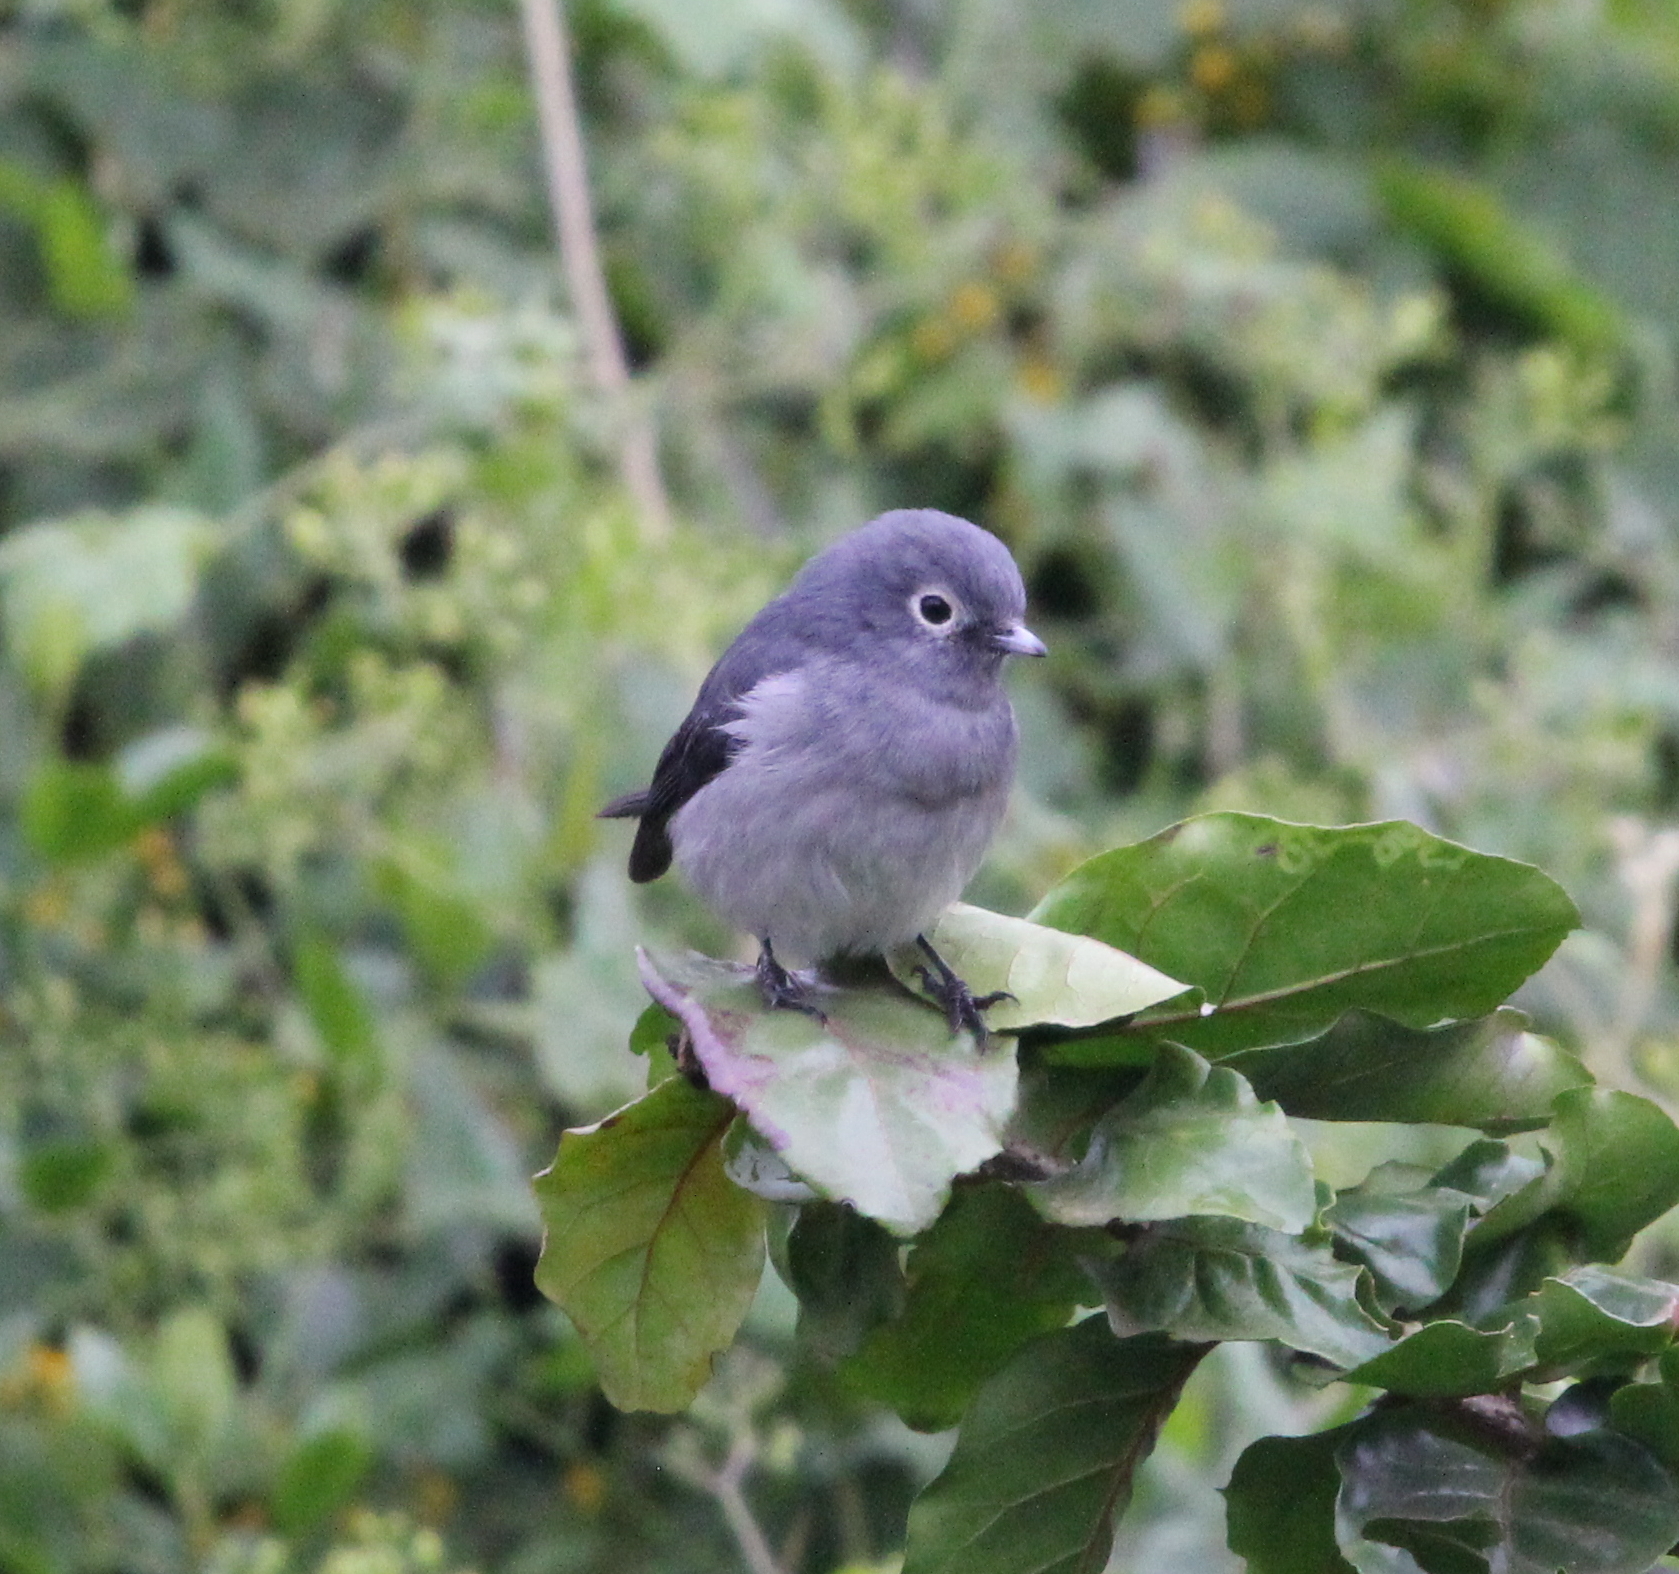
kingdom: Animalia
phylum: Chordata
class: Aves
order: Passeriformes
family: Muscicapidae
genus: Dioptrornis
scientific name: Dioptrornis fischeri
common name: White-eyed slaty flycatcher
